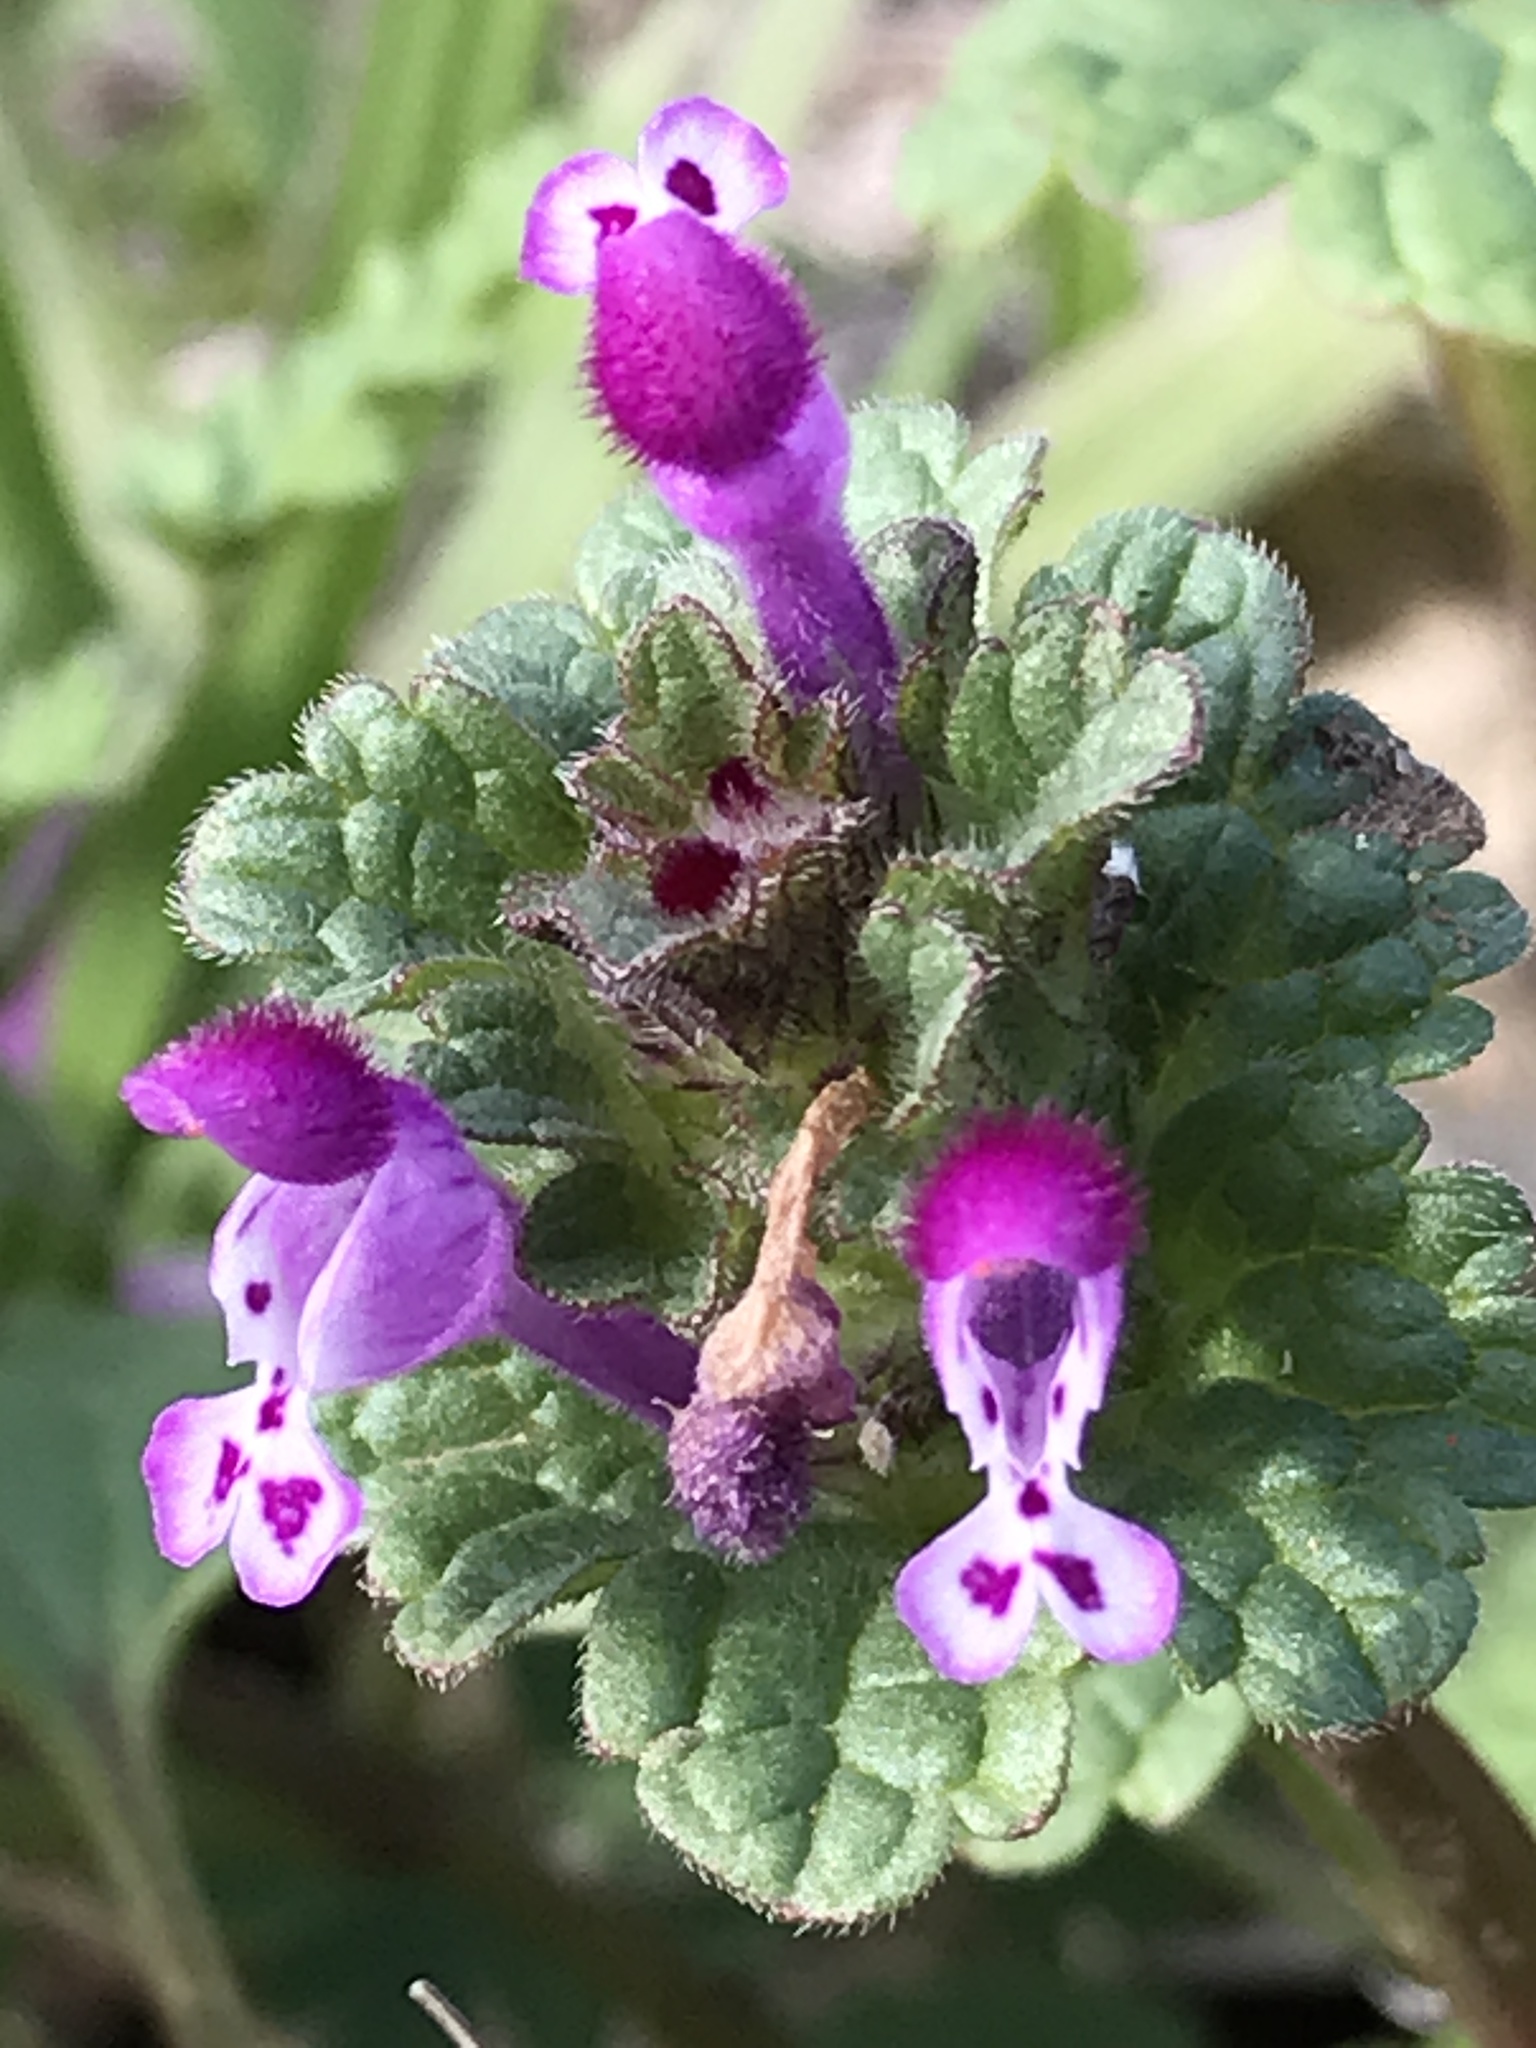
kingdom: Plantae
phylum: Tracheophyta
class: Magnoliopsida
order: Lamiales
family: Lamiaceae
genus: Lamium
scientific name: Lamium amplexicaule
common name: Henbit dead-nettle
